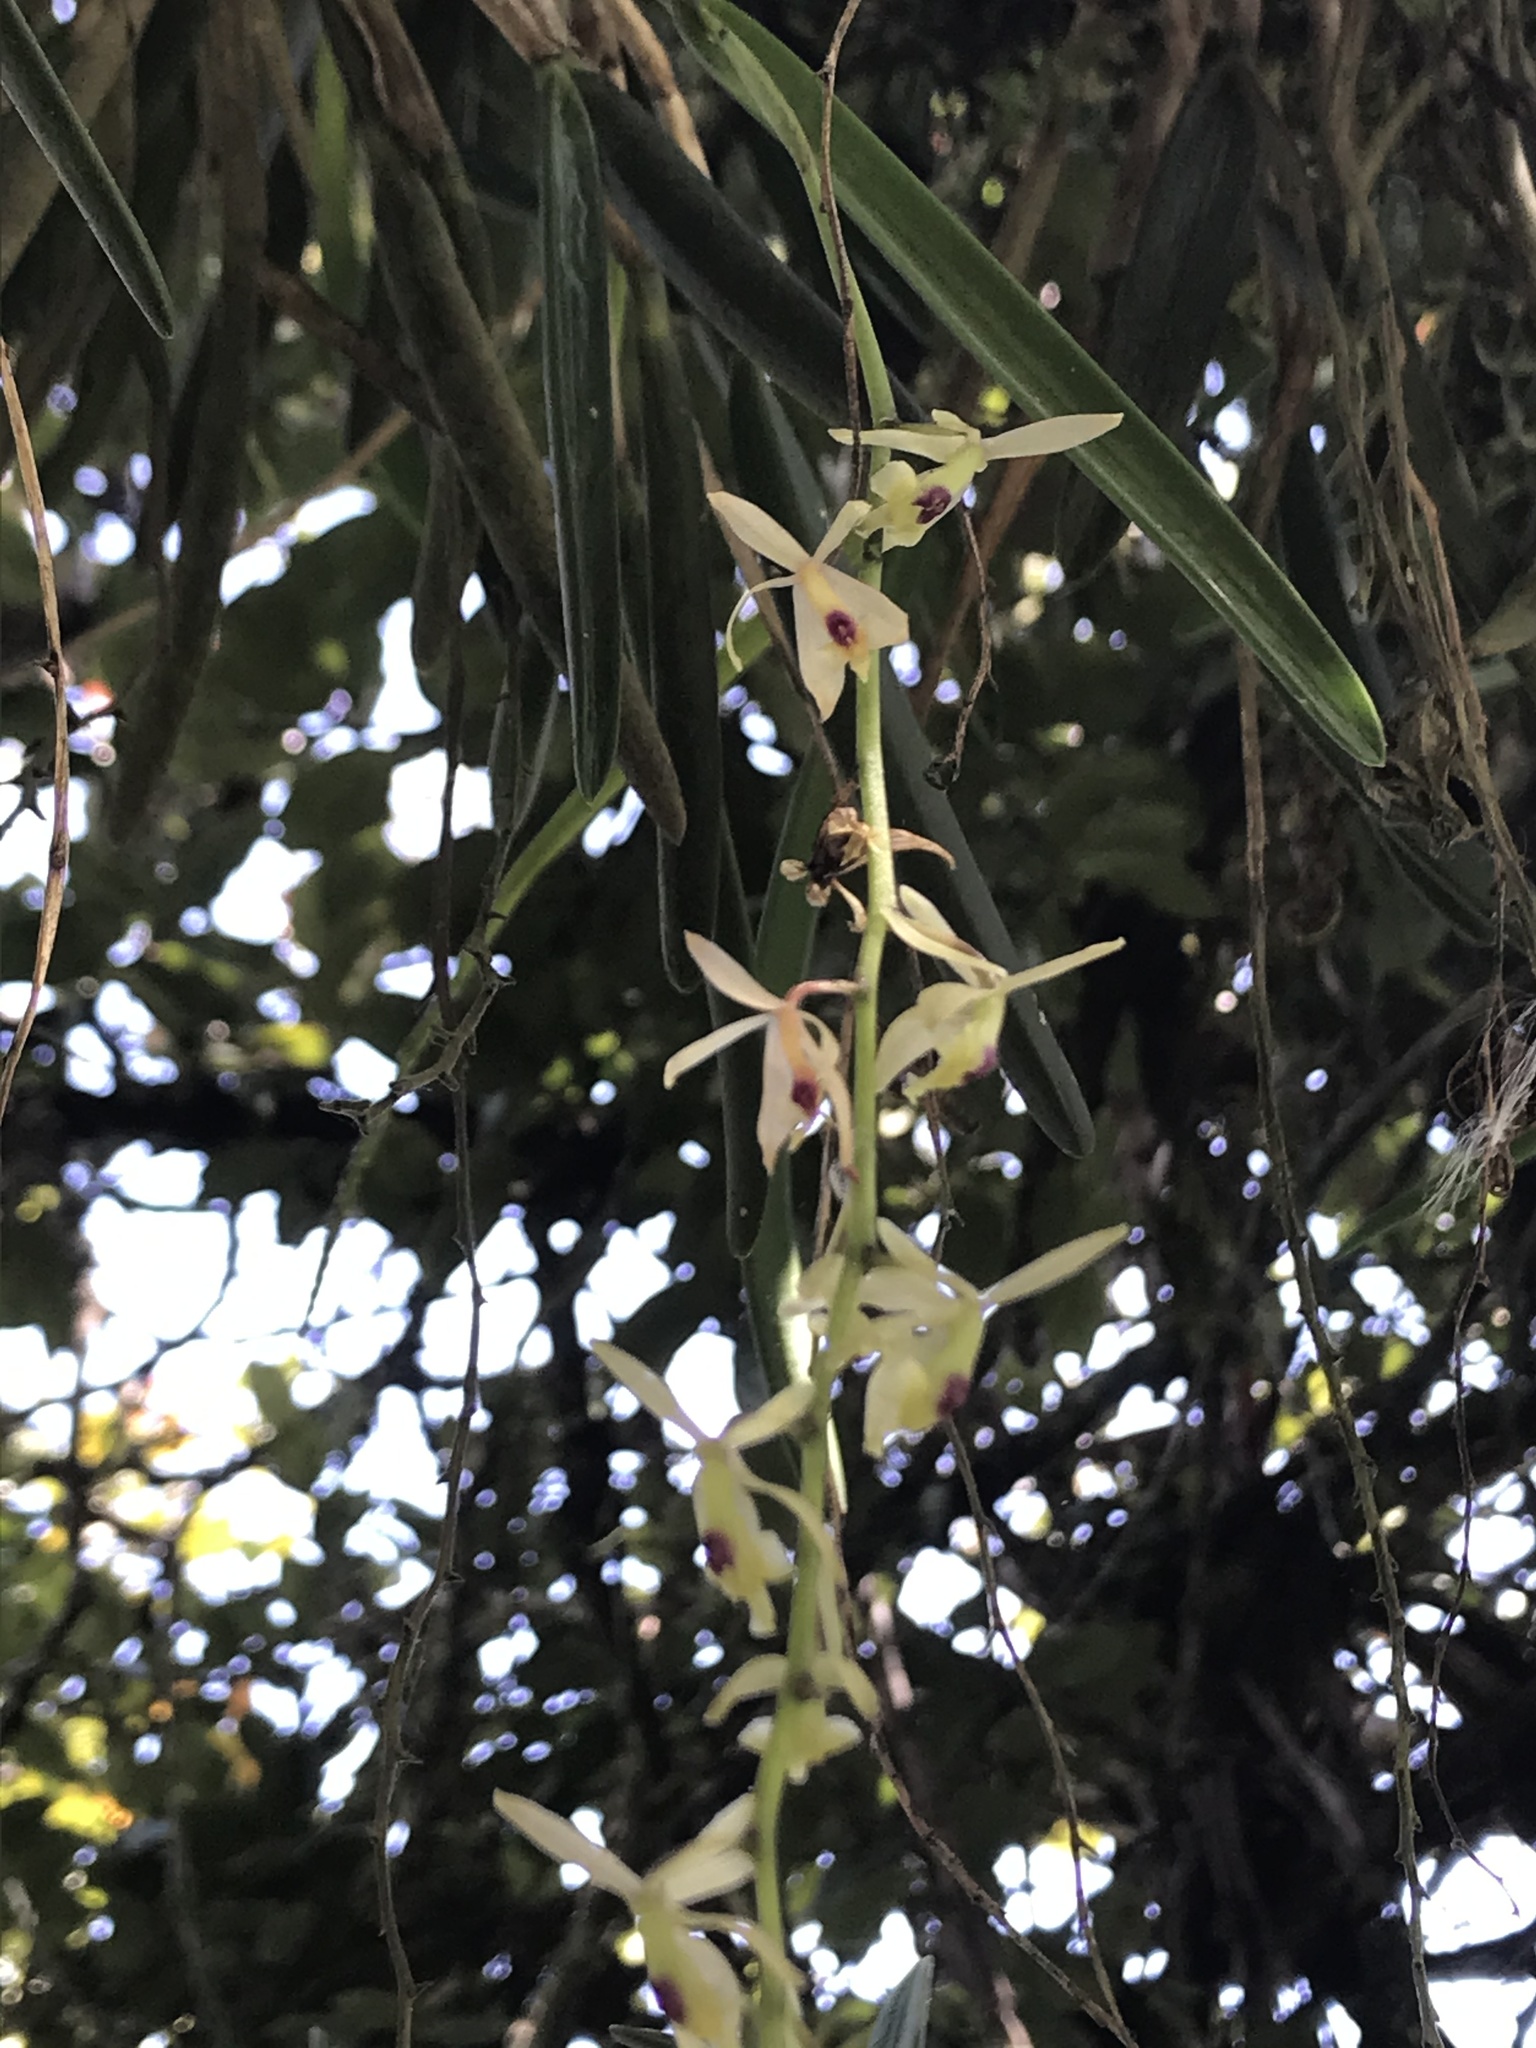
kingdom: Plantae
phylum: Tracheophyta
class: Liliopsida
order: Asparagales
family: Orchidaceae
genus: Epidendrum
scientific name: Epidendrum moritzii
